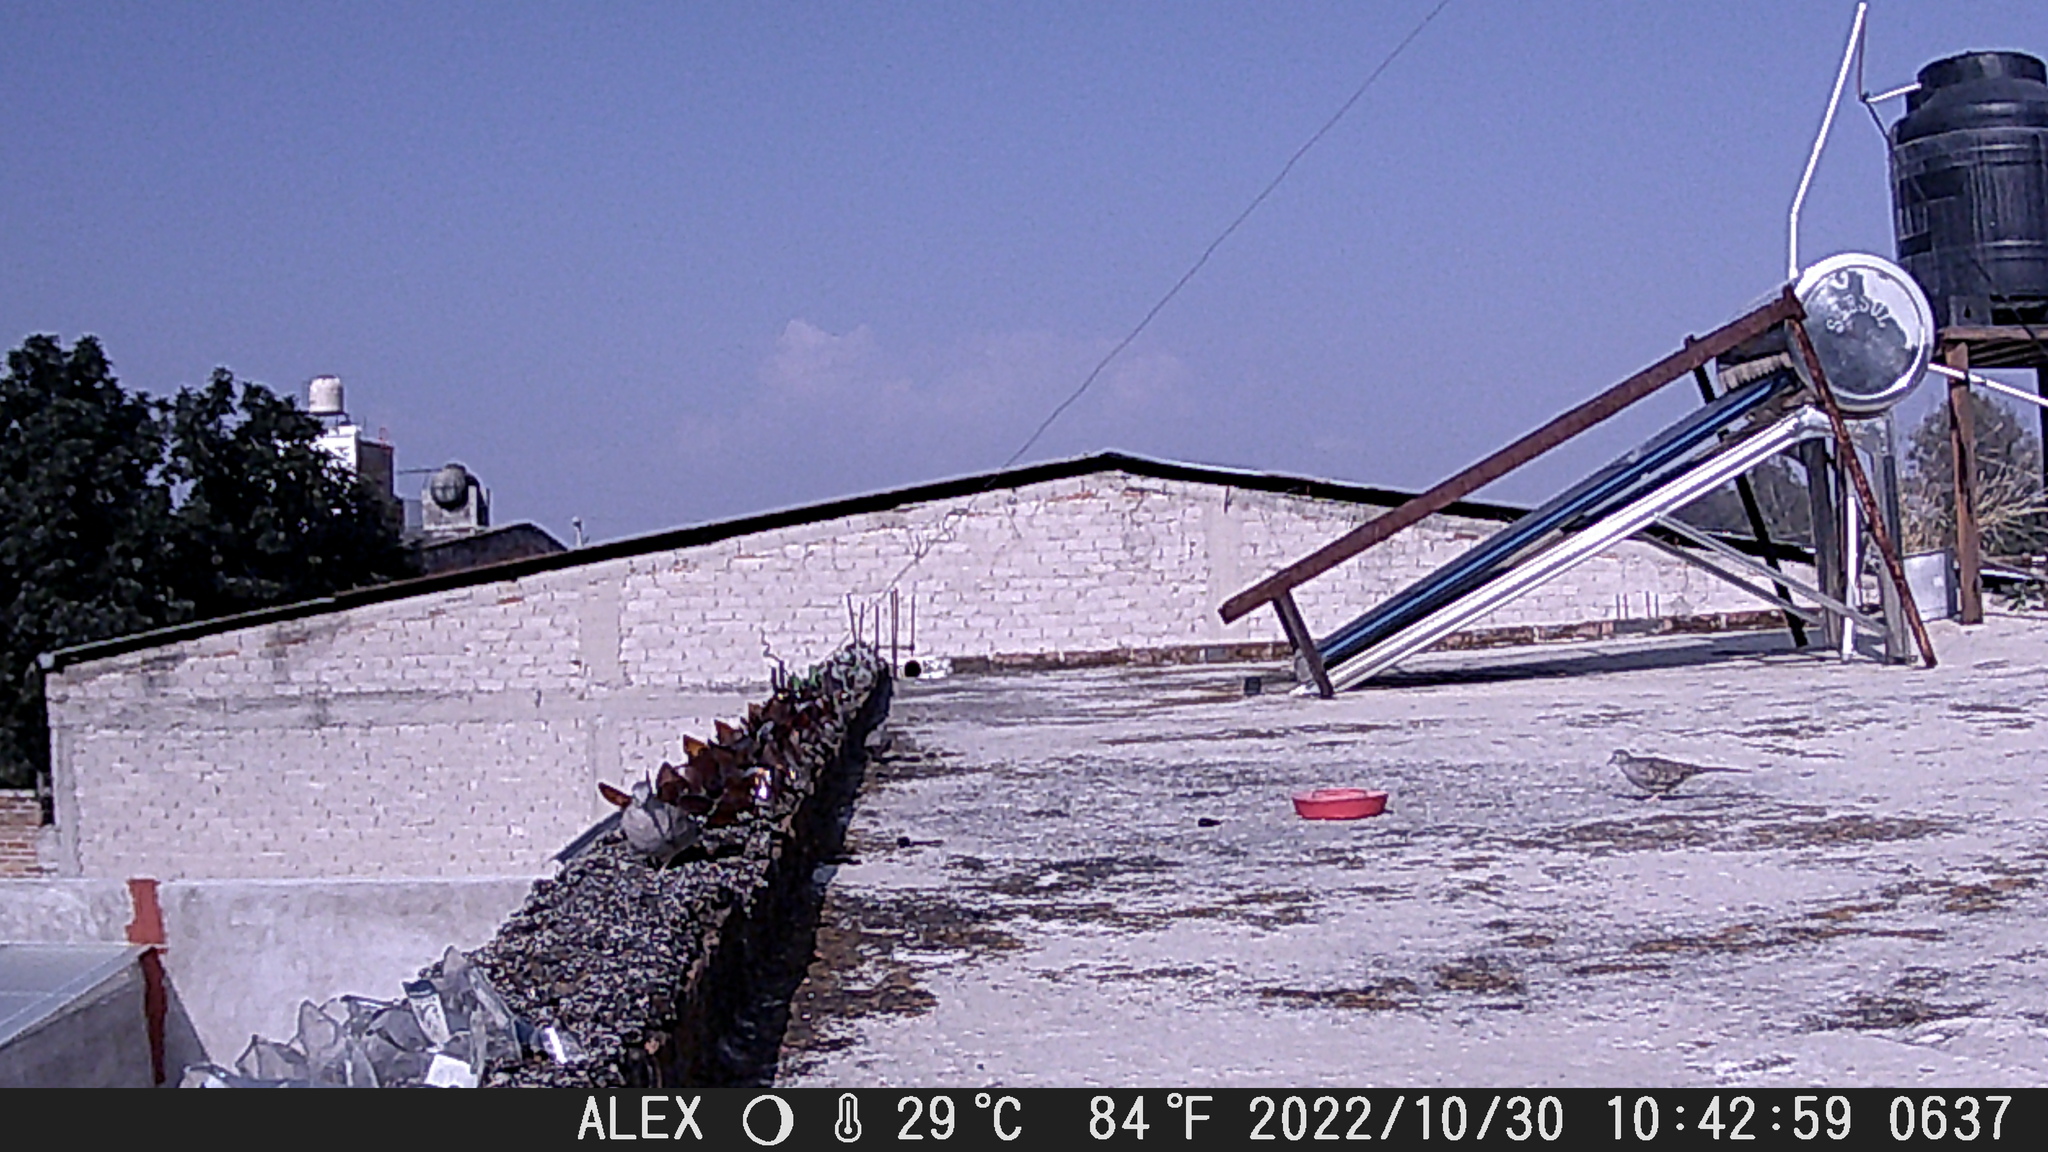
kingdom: Animalia
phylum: Chordata
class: Aves
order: Columbiformes
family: Columbidae
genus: Columbina
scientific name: Columbina inca
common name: Inca dove
